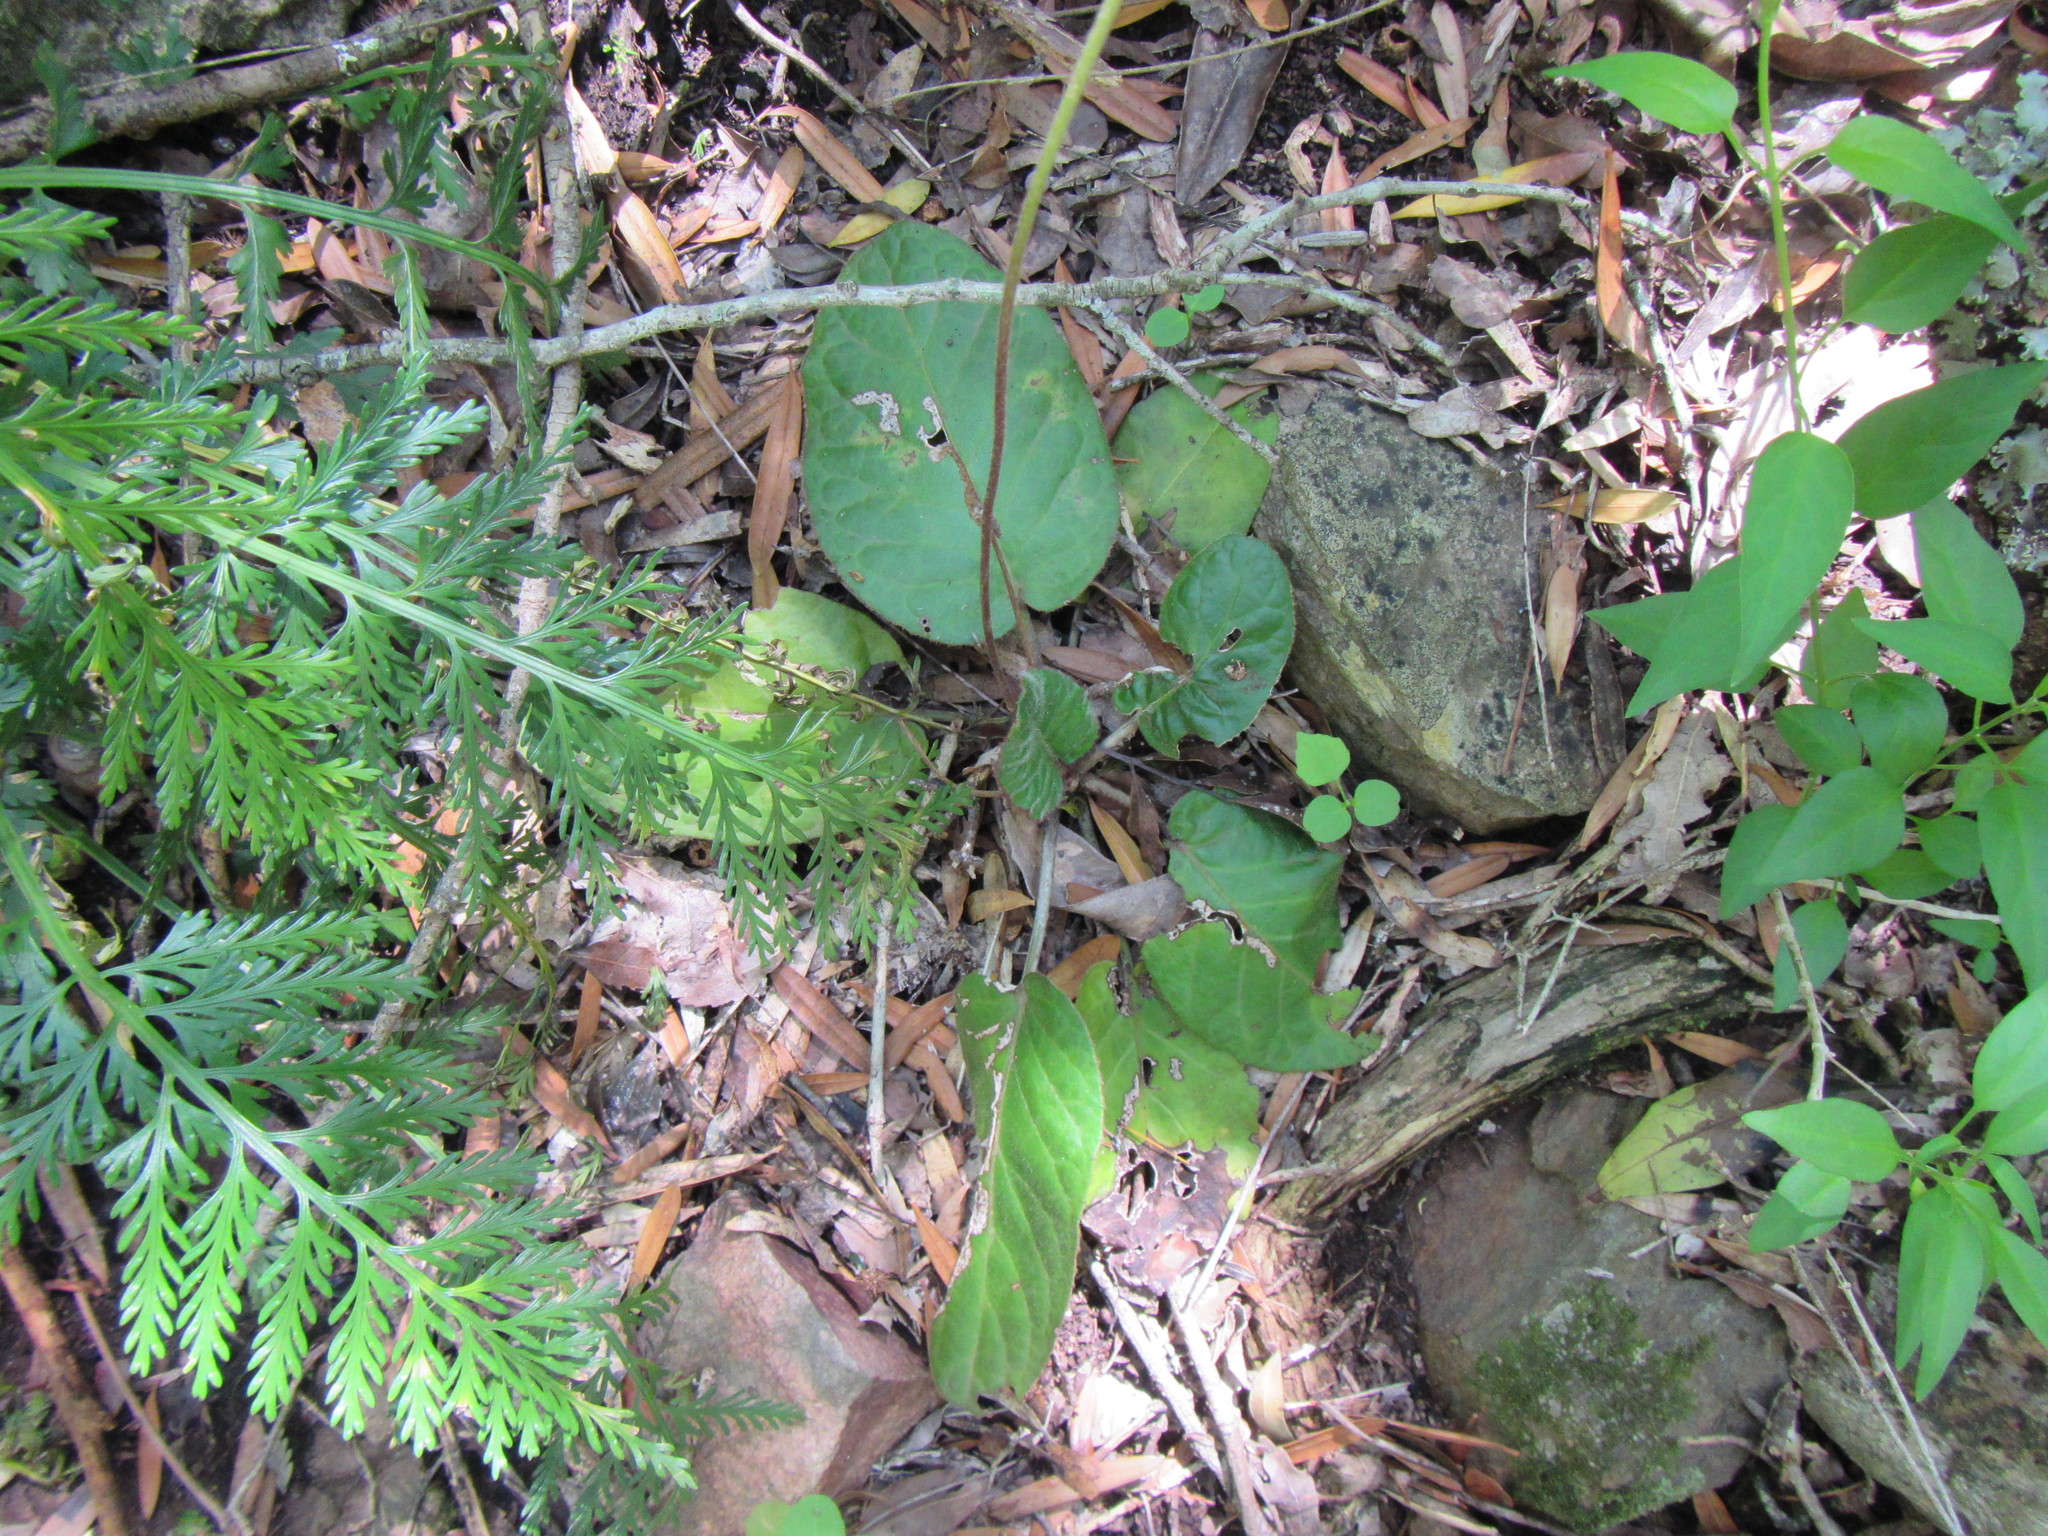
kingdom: Plantae
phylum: Tracheophyta
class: Magnoliopsida
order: Asterales
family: Asteraceae
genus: Piloselloides
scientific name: Piloselloides hirsuta
